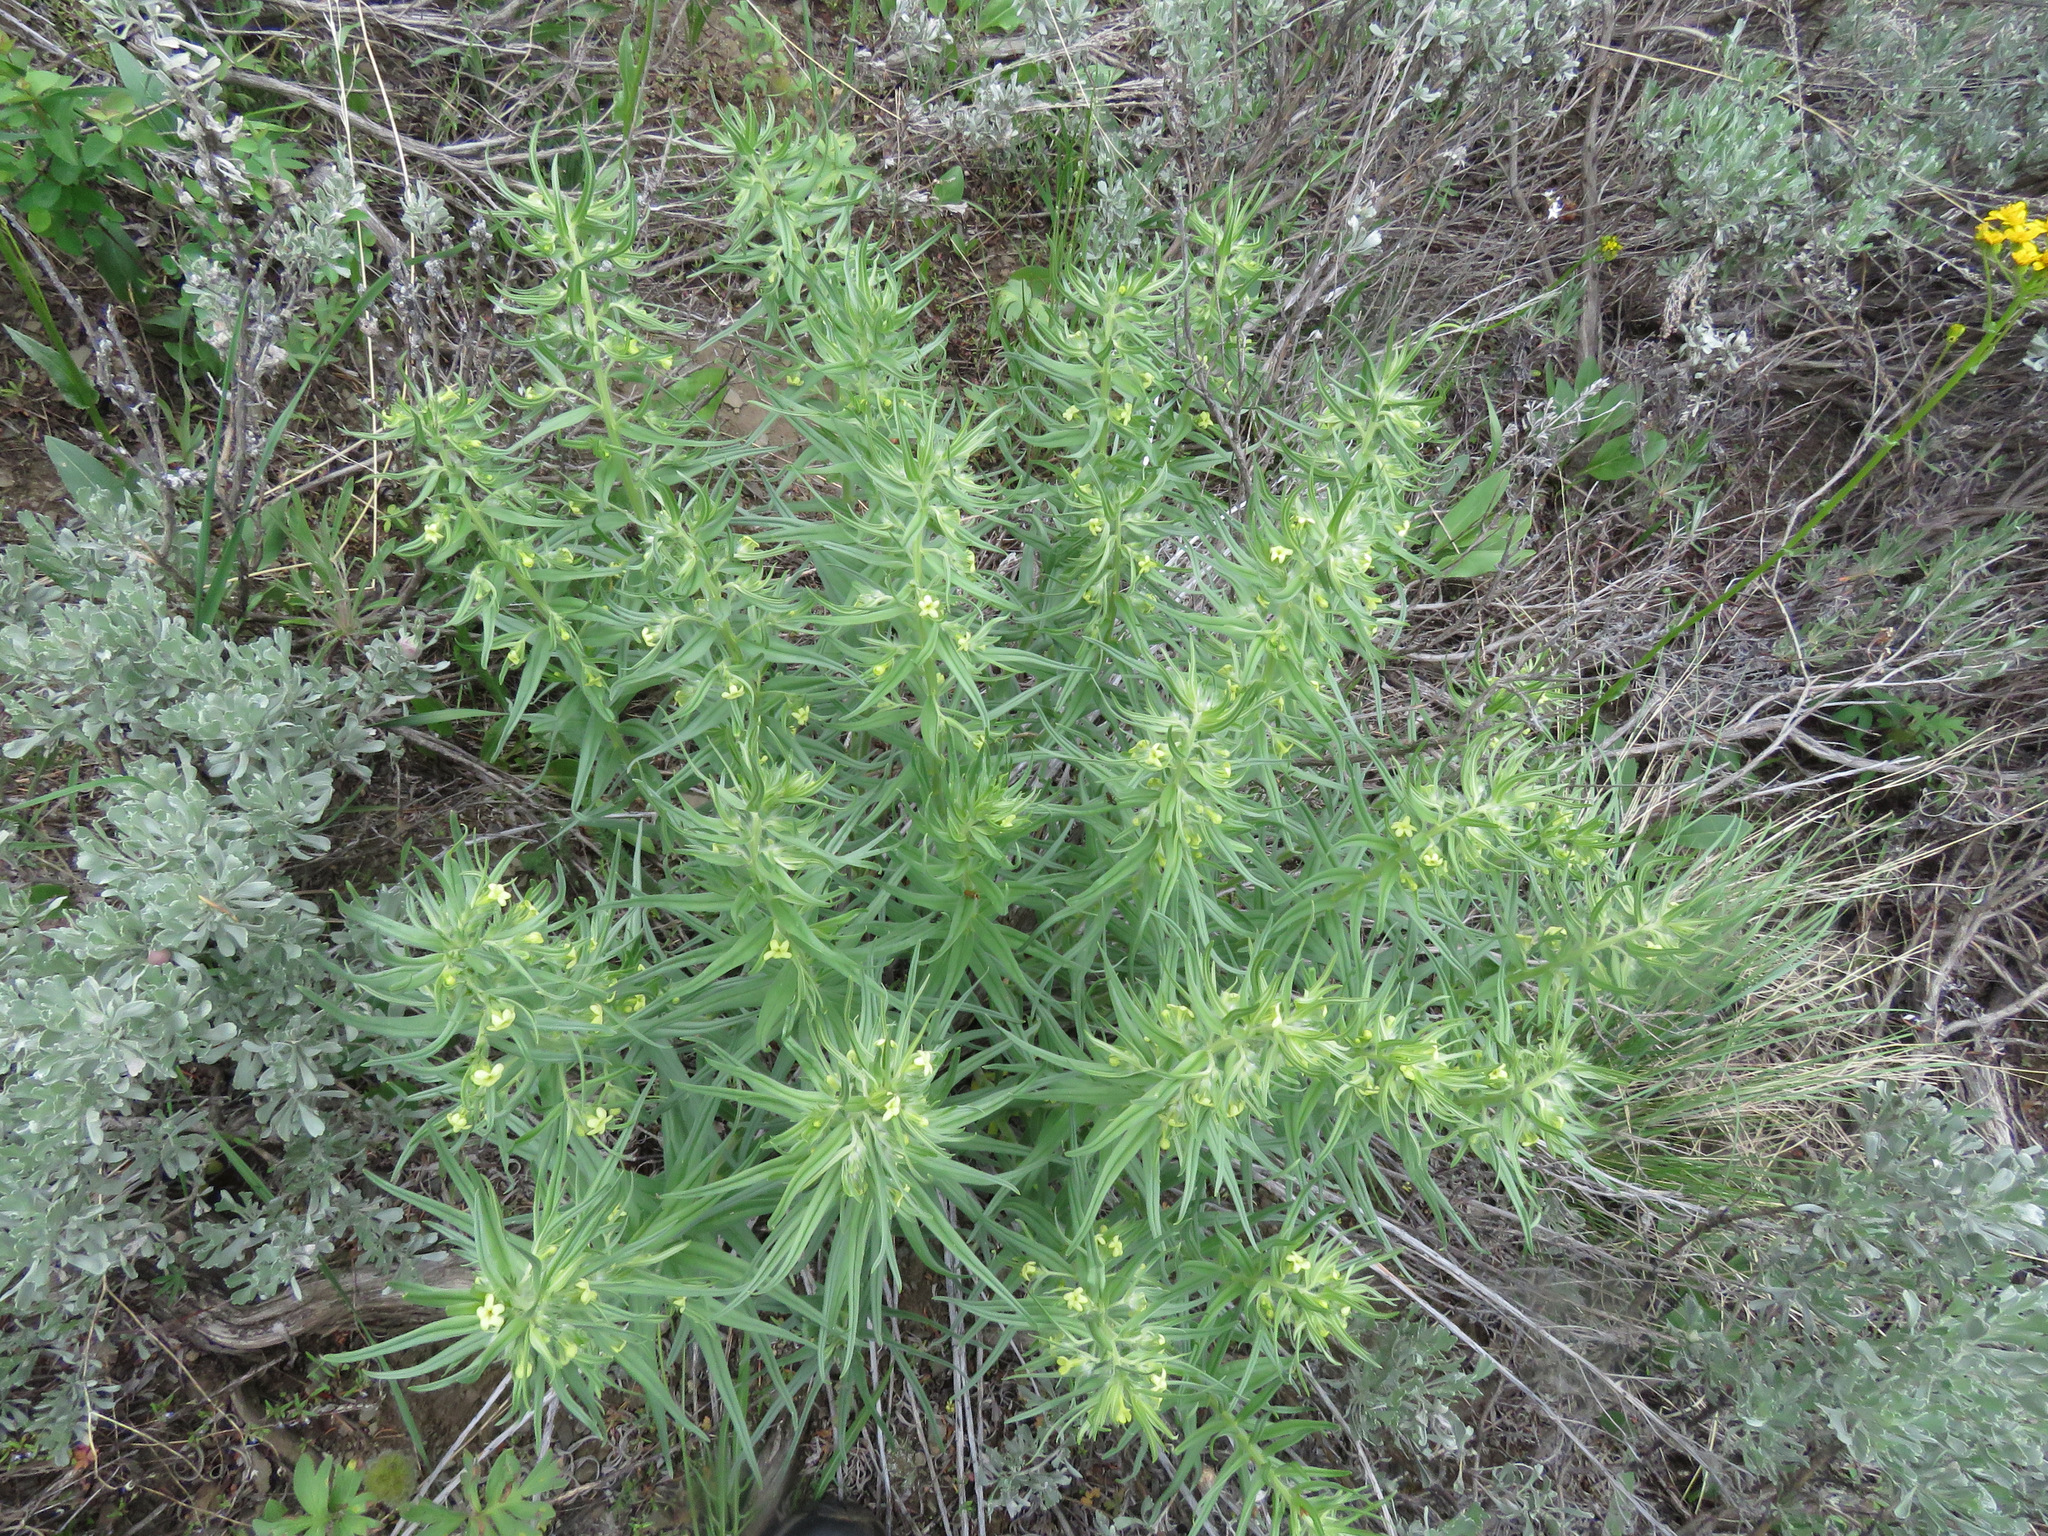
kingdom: Plantae
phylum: Tracheophyta
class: Magnoliopsida
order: Boraginales
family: Boraginaceae
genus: Lithospermum
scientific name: Lithospermum ruderale
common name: Western gromwell
